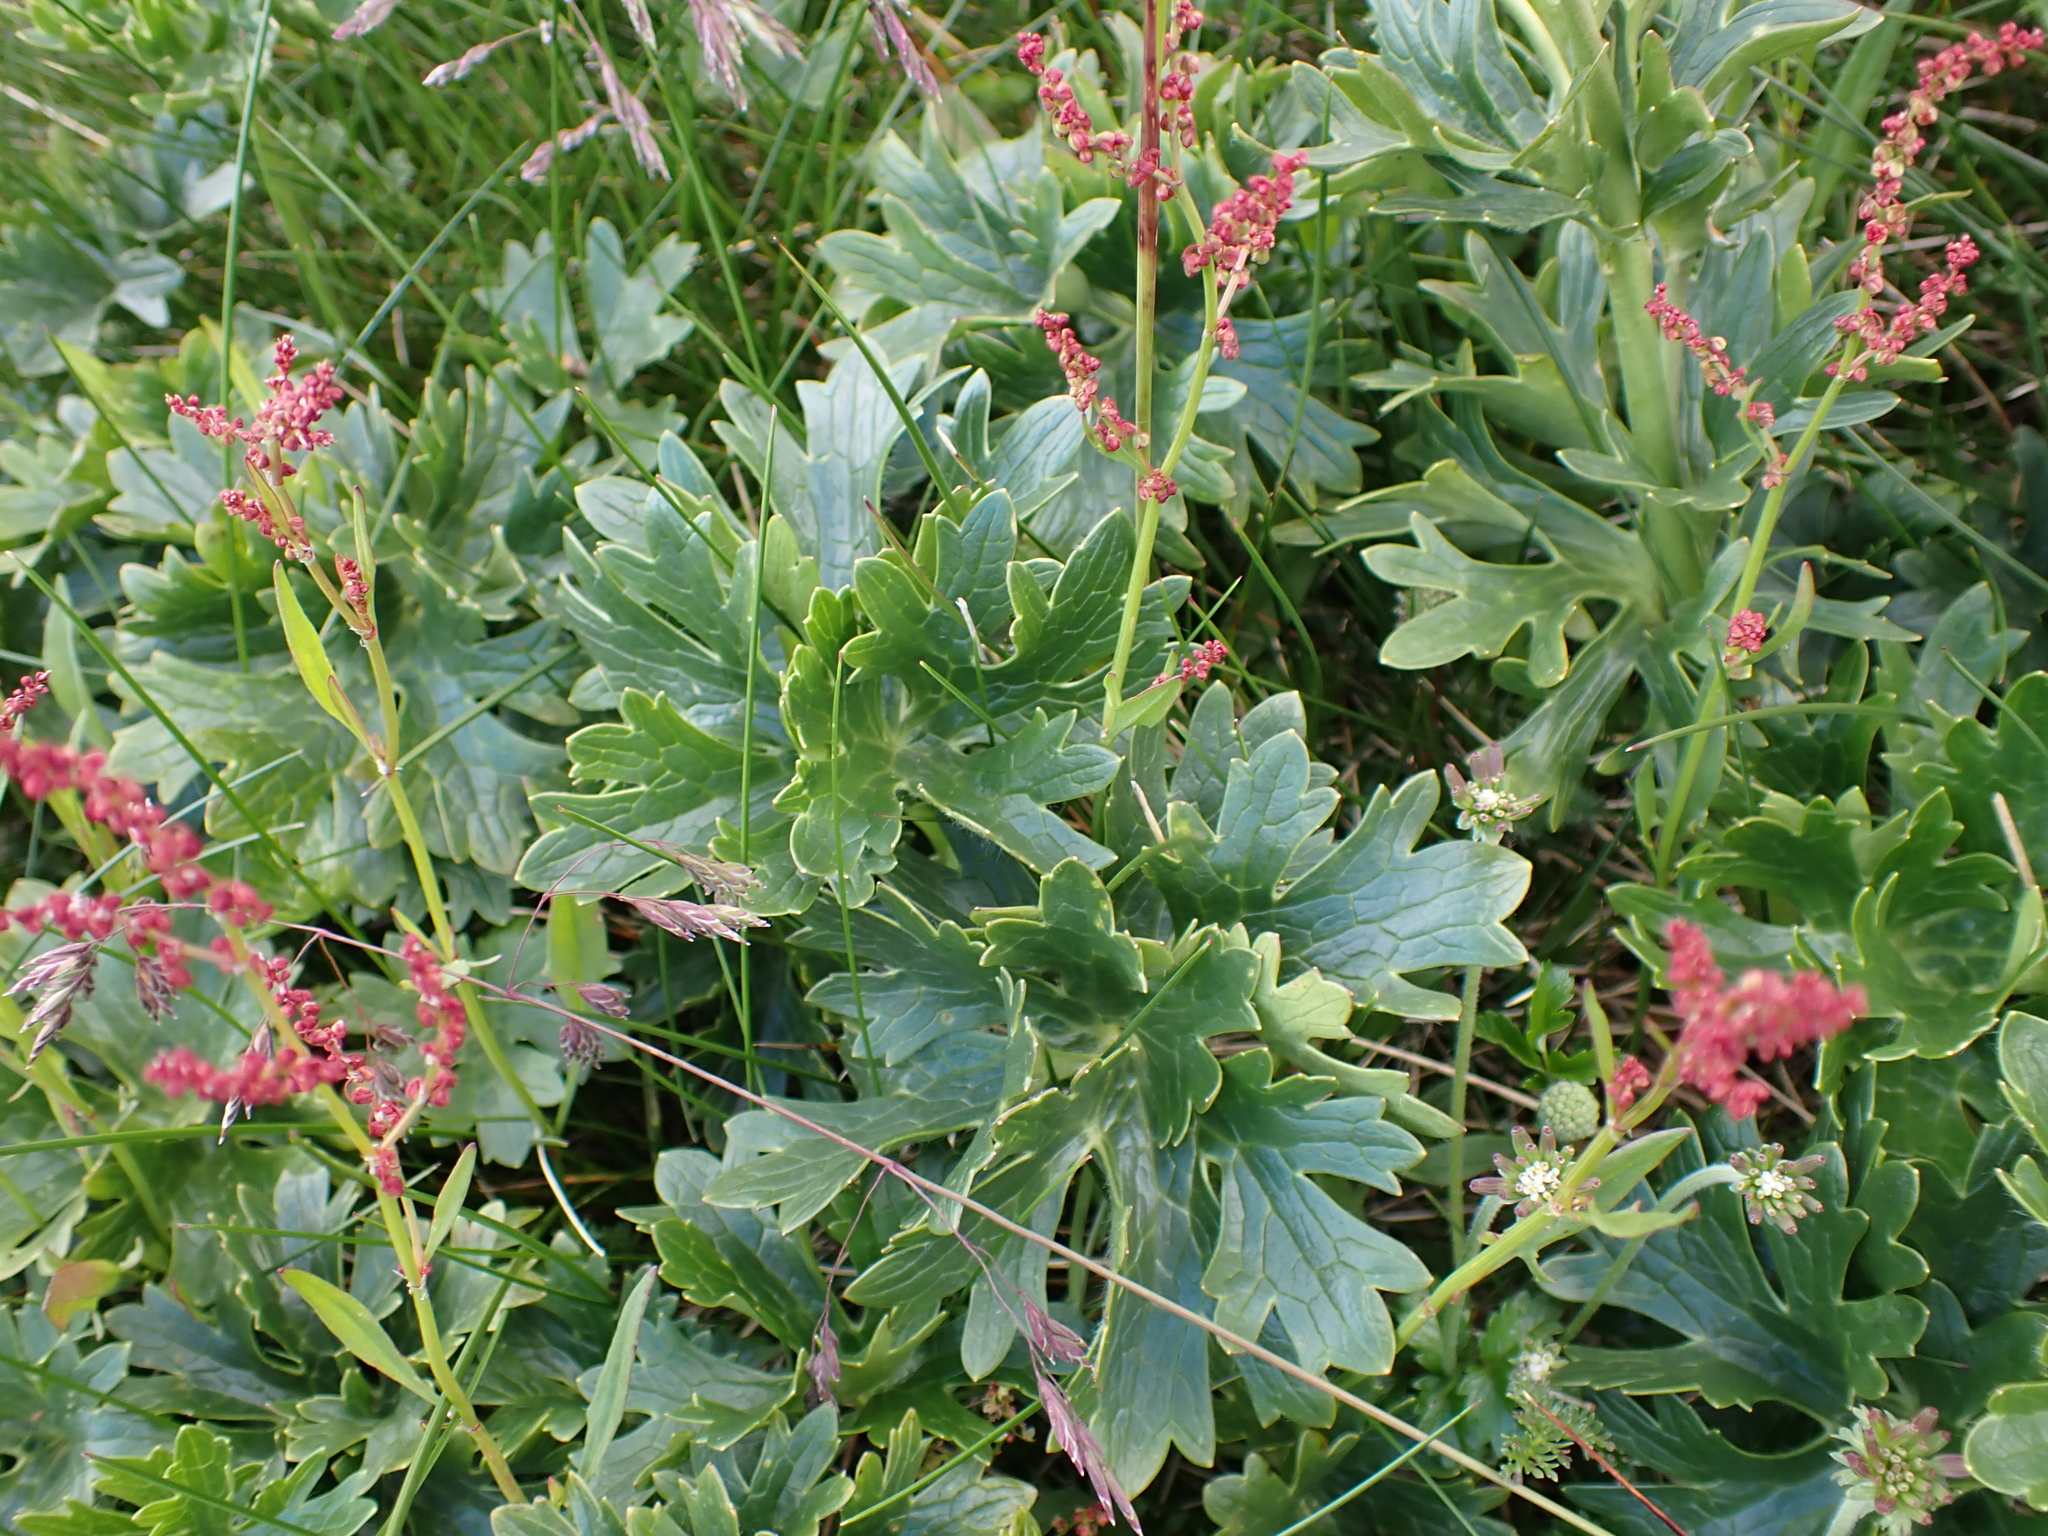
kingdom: Plantae
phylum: Tracheophyta
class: Magnoliopsida
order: Ranunculales
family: Ranunculaceae
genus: Ranunculus
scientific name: Ranunculus anemoneus
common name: Anemone buttercup
